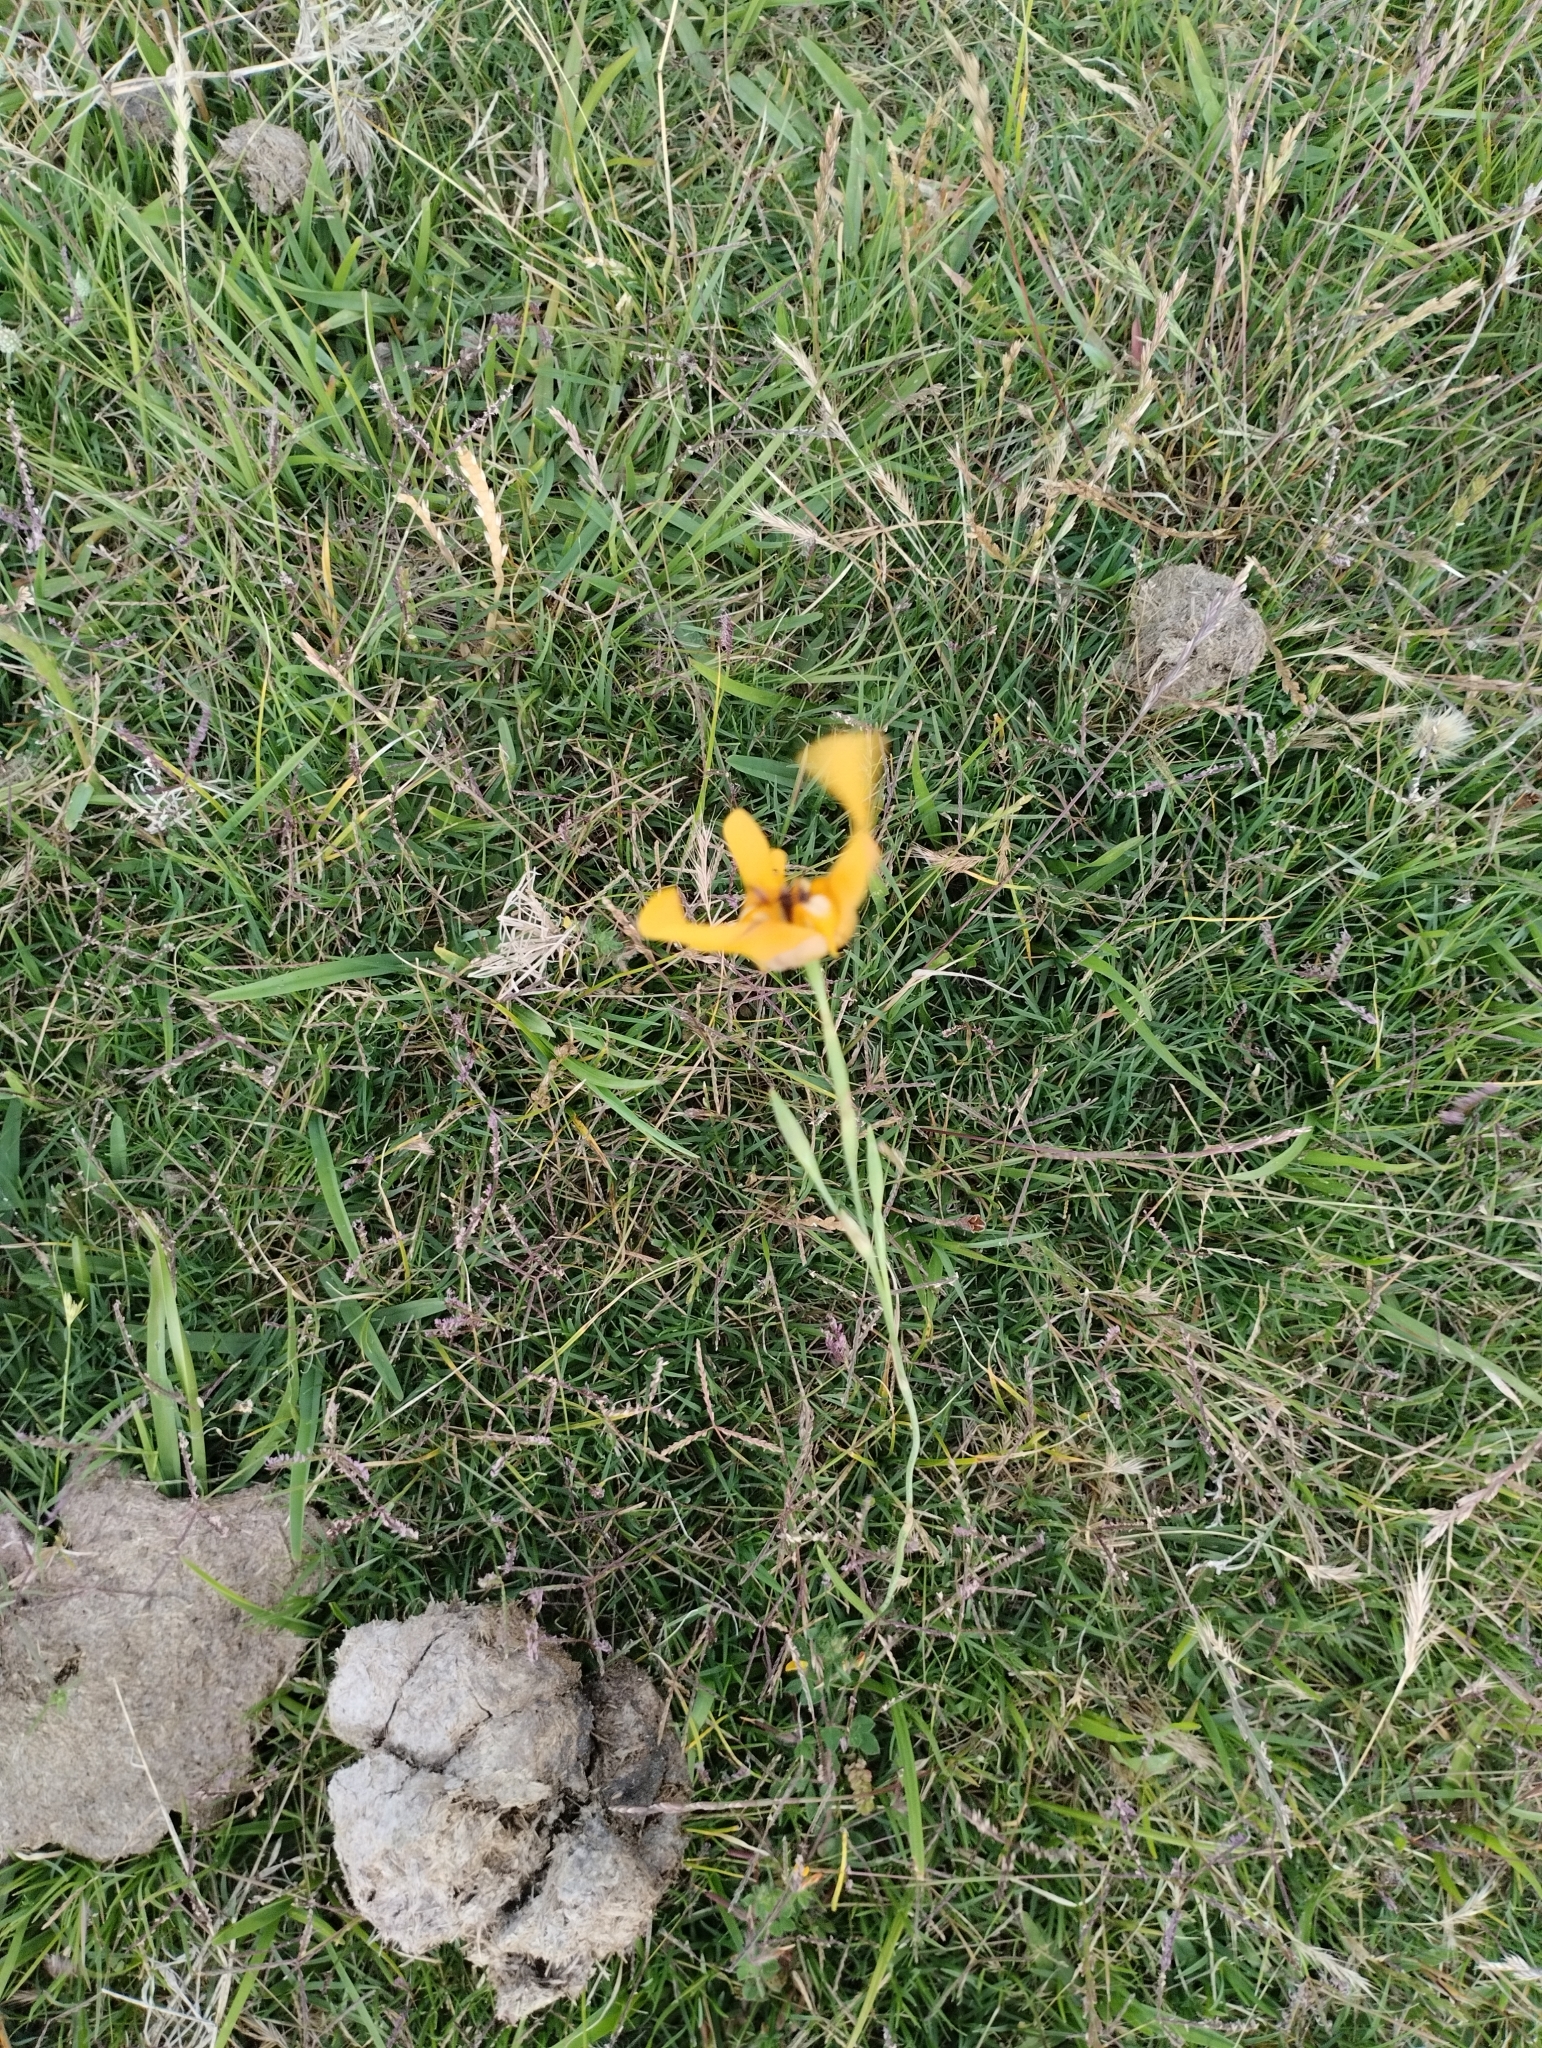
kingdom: Plantae
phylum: Tracheophyta
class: Liliopsida
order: Asparagales
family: Iridaceae
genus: Cypella
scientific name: Cypella herbertii
